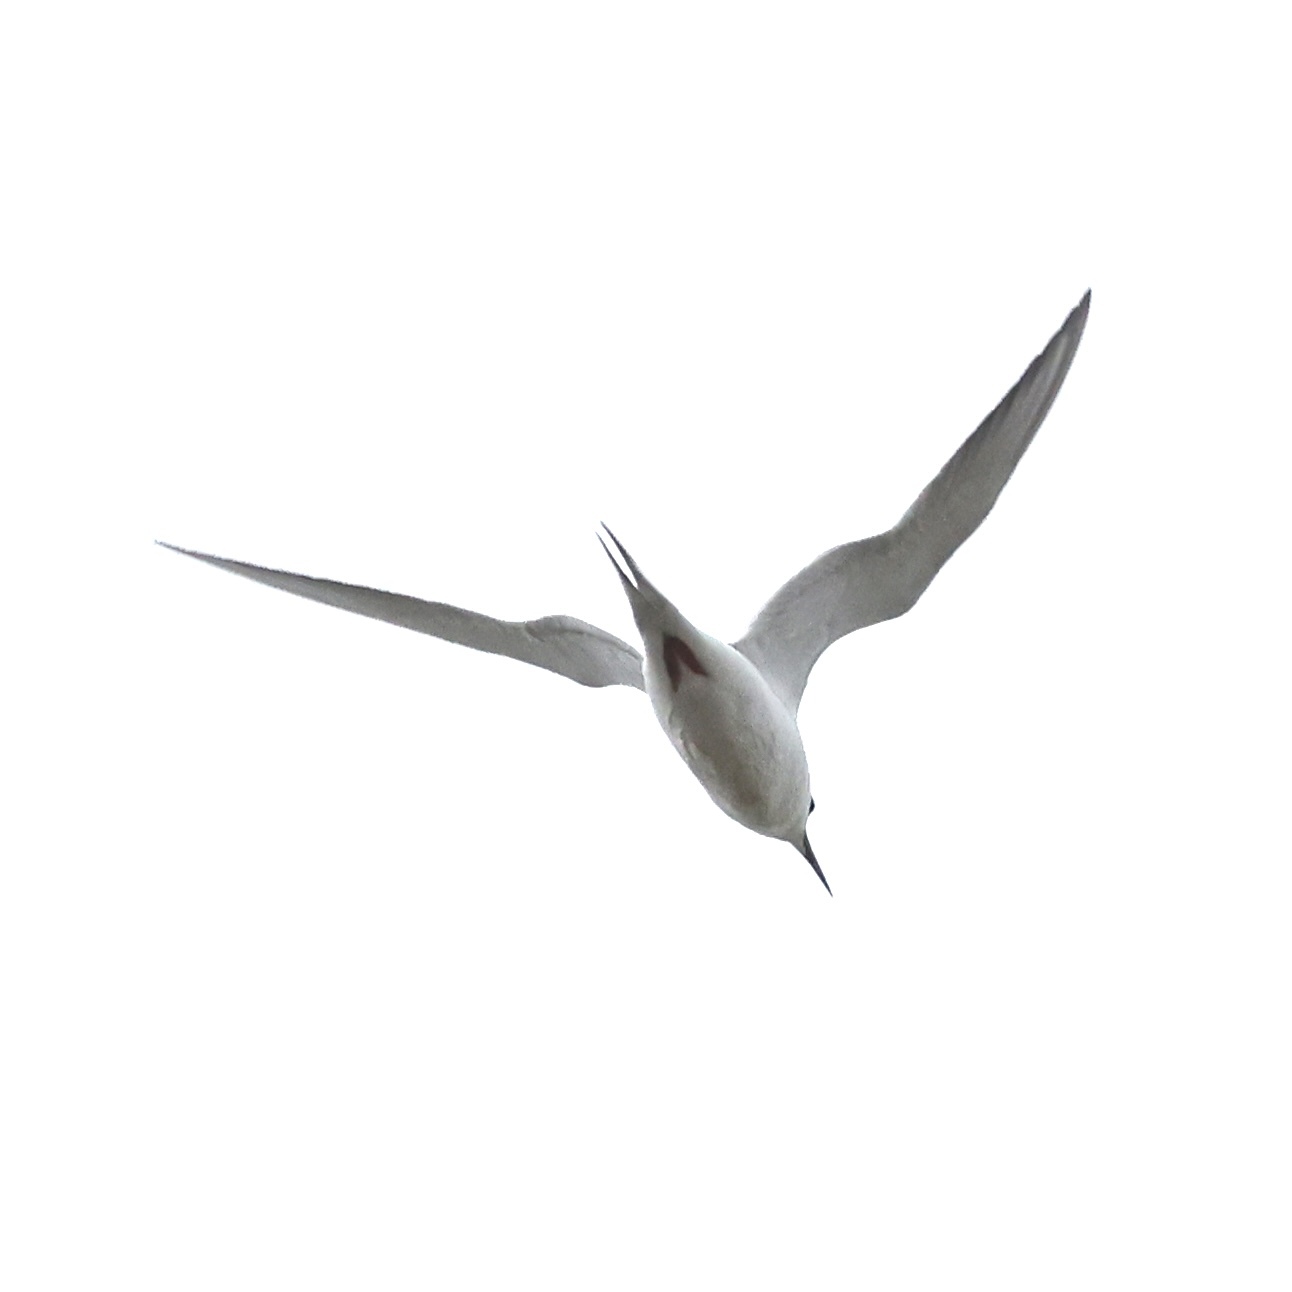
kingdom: Animalia
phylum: Chordata
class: Aves
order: Charadriiformes
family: Laridae
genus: Sterna
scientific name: Sterna forsteri
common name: Forster's tern
